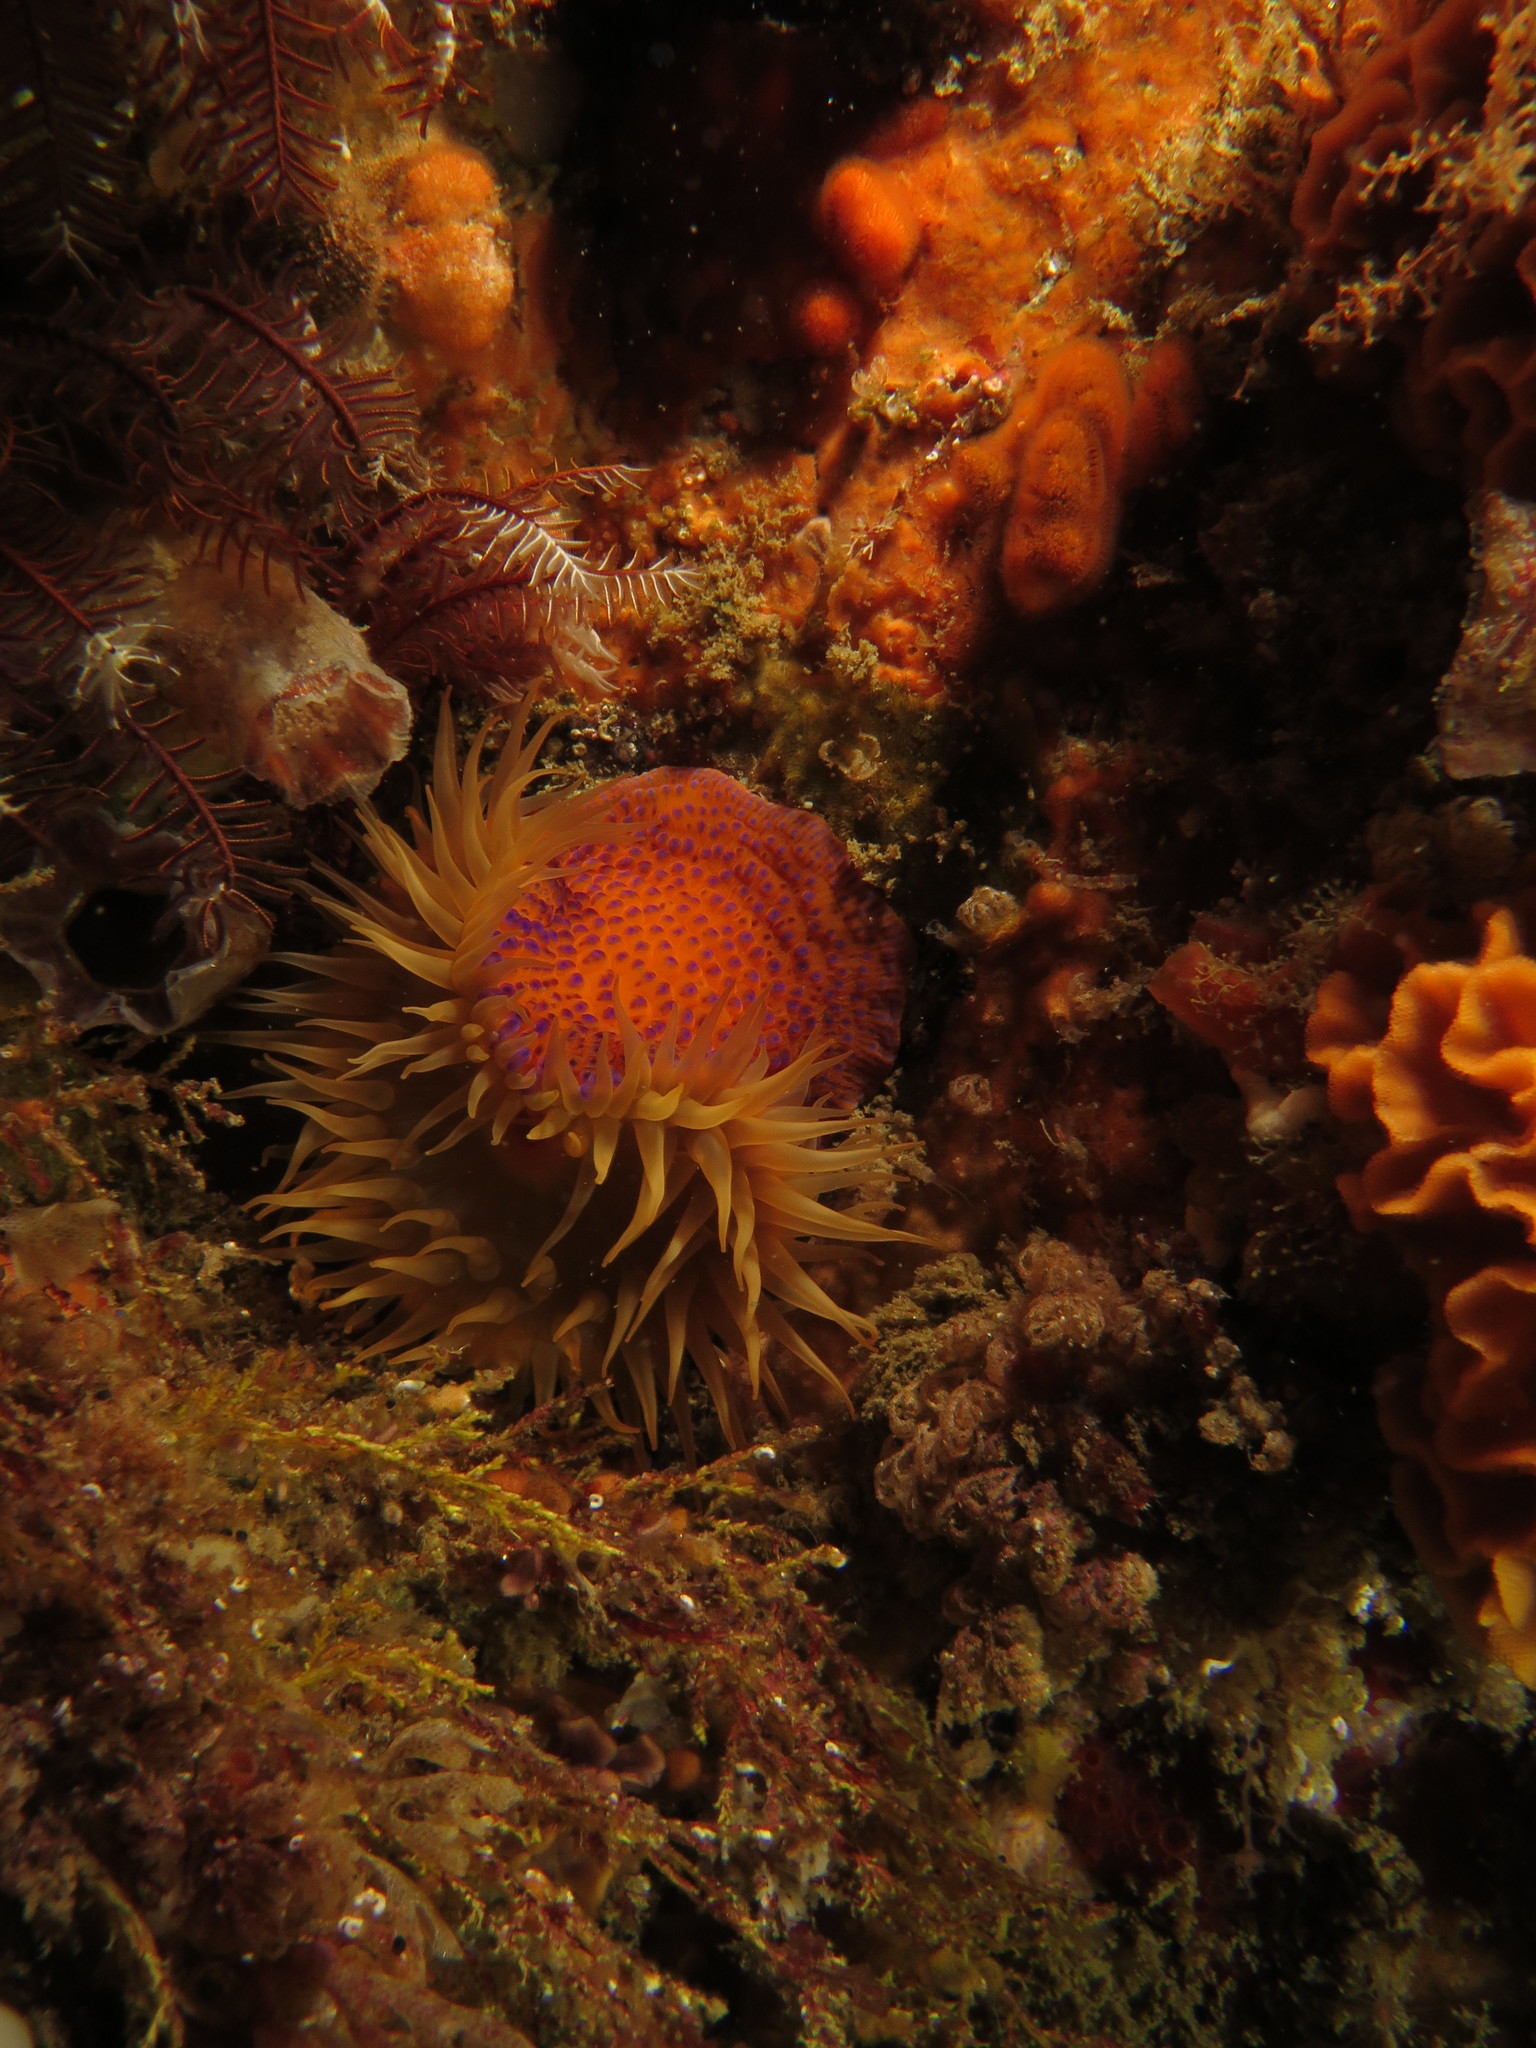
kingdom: Animalia
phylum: Cnidaria
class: Anthozoa
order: Actiniaria
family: Actiniidae
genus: Bunodosoma
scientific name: Bunodosoma capense
